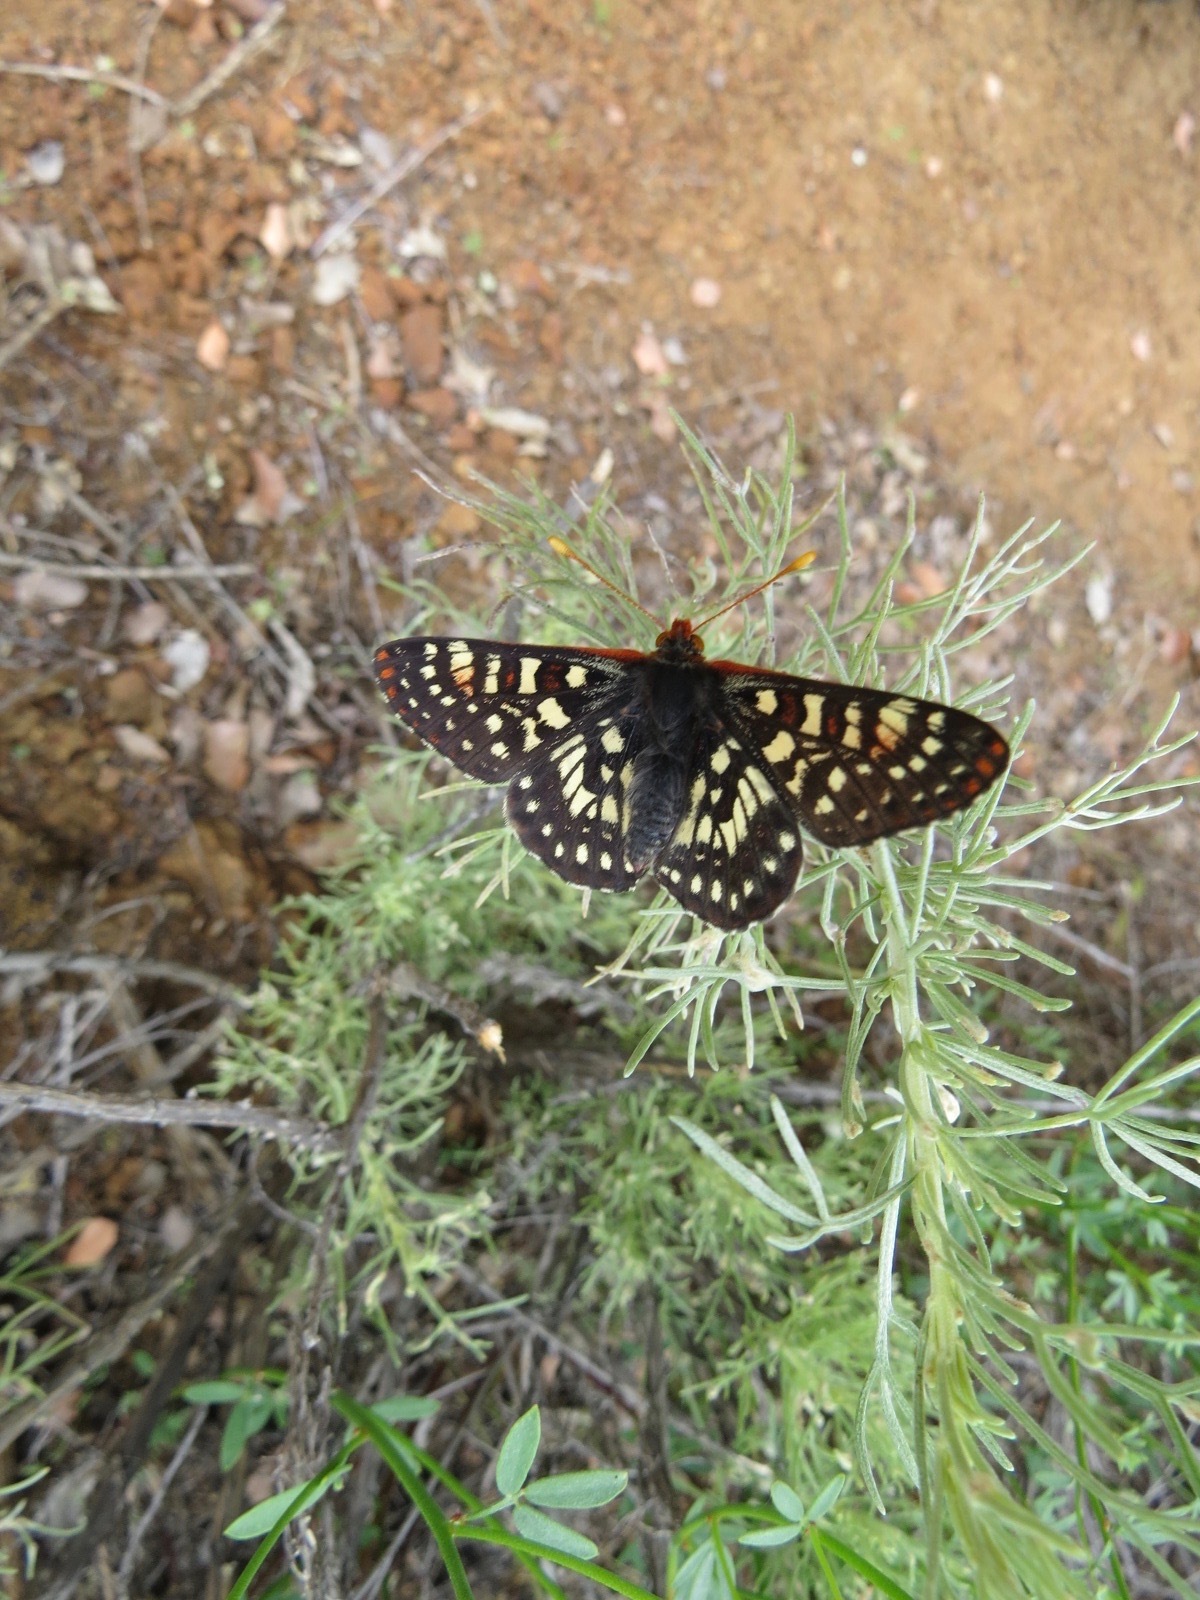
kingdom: Animalia
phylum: Arthropoda
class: Insecta
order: Lepidoptera
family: Nymphalidae
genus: Occidryas
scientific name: Occidryas chalcedona
